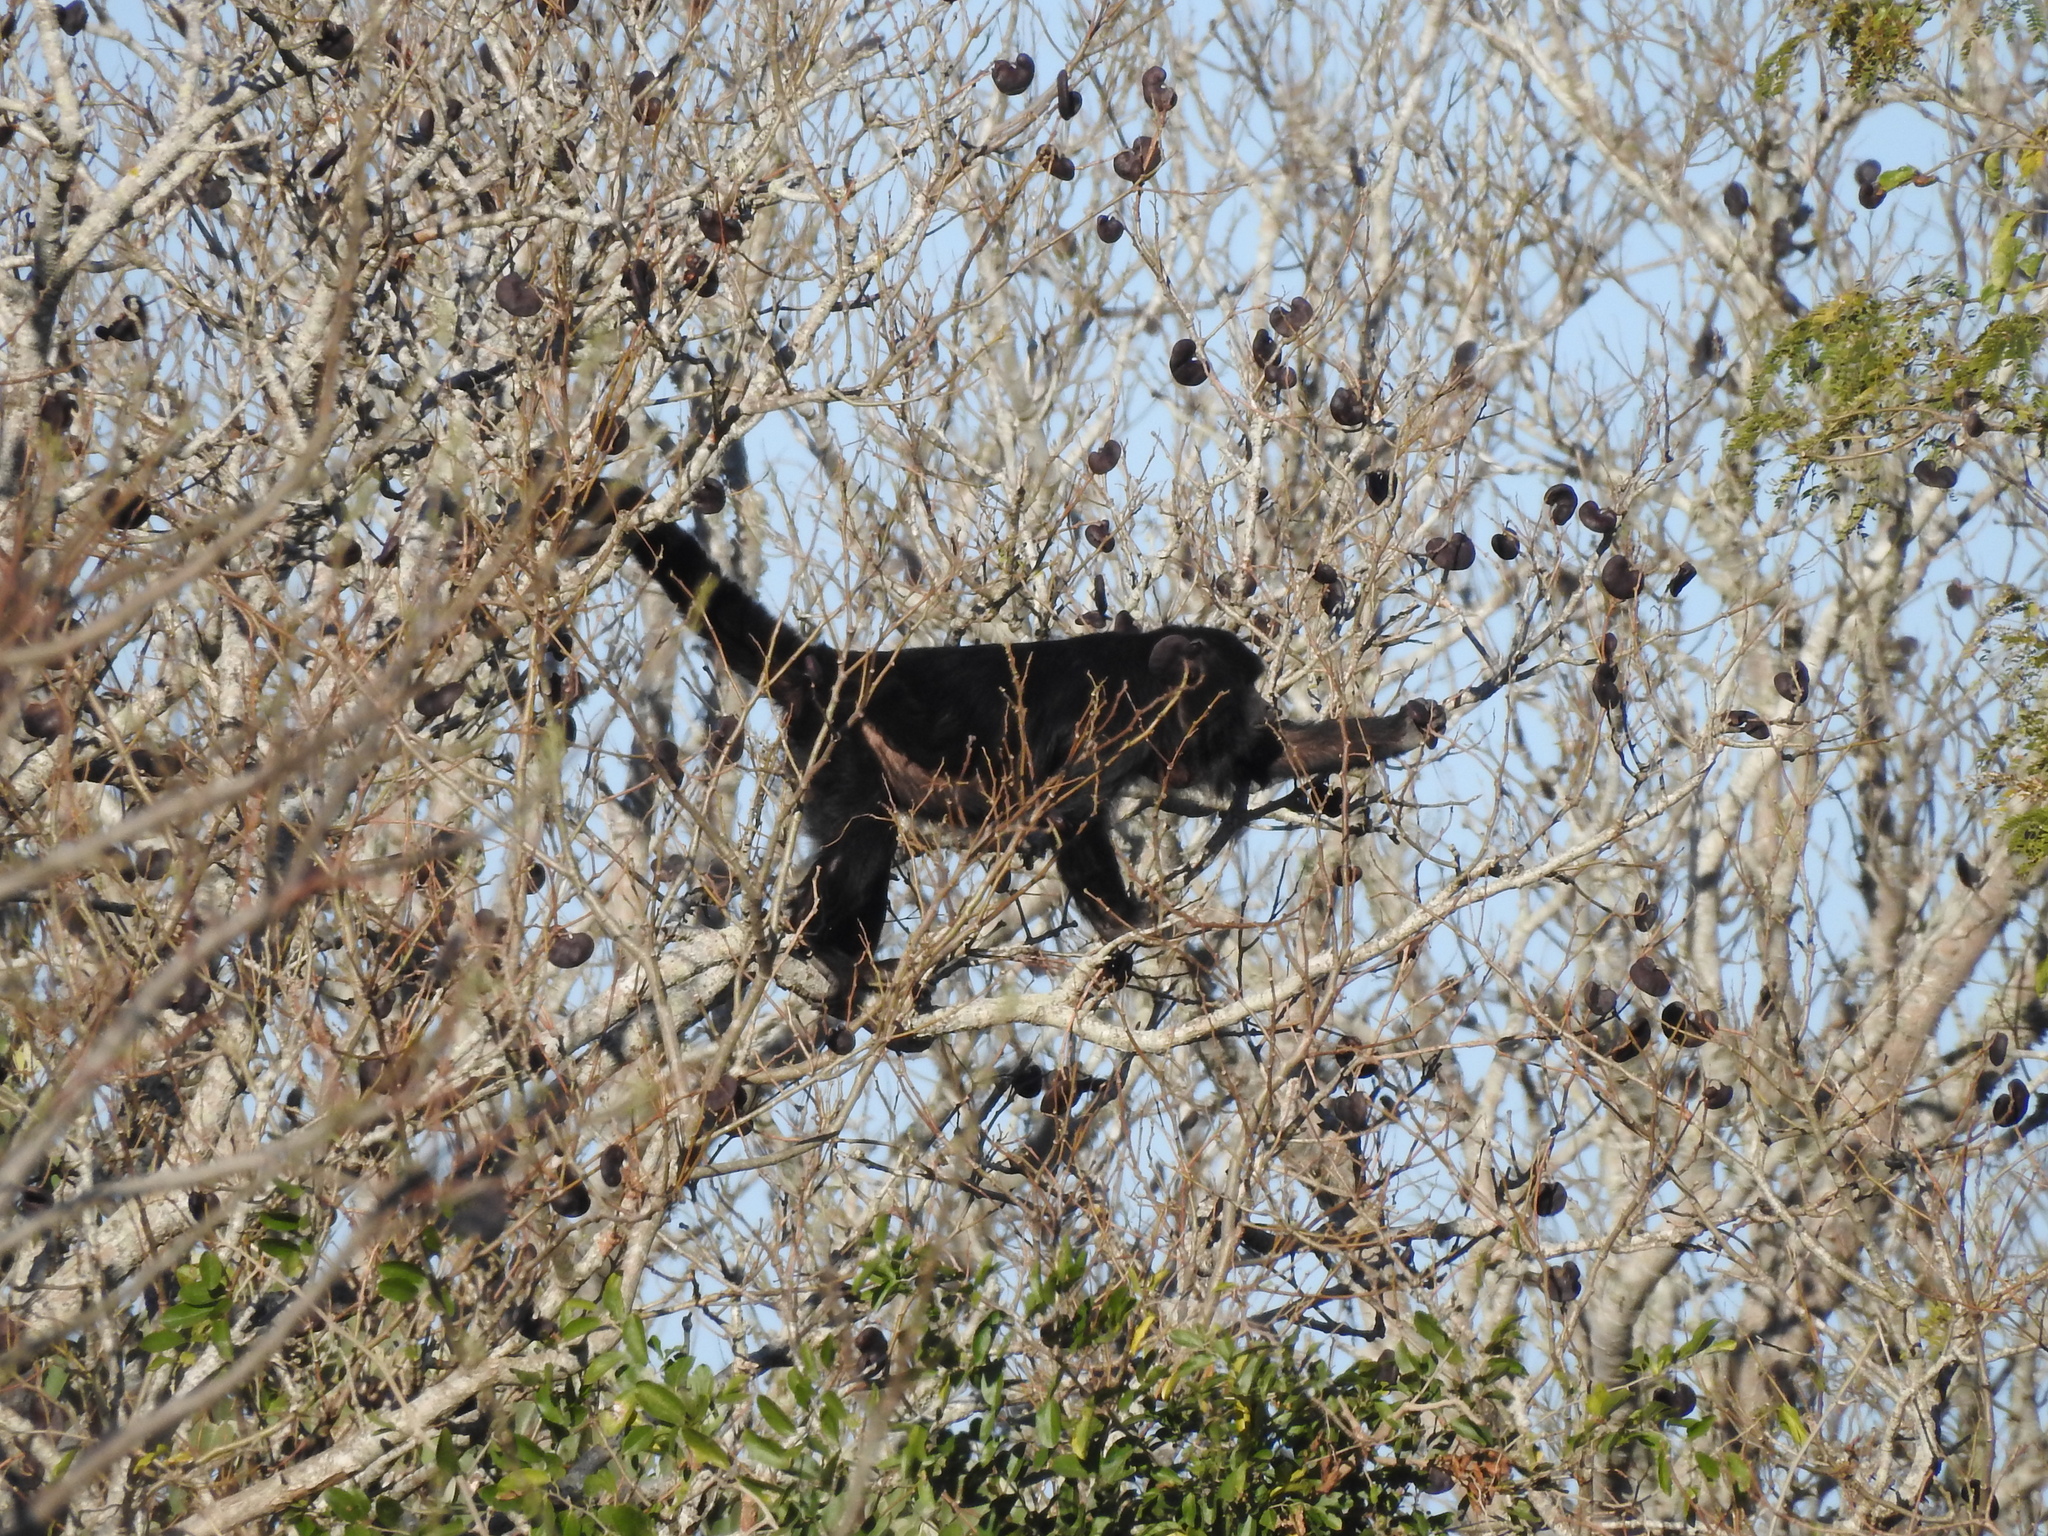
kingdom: Plantae
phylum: Tracheophyta
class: Magnoliopsida
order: Fabales
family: Fabaceae
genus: Enterolobium
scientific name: Enterolobium contortisiliquum
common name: Pacara earpod tree
